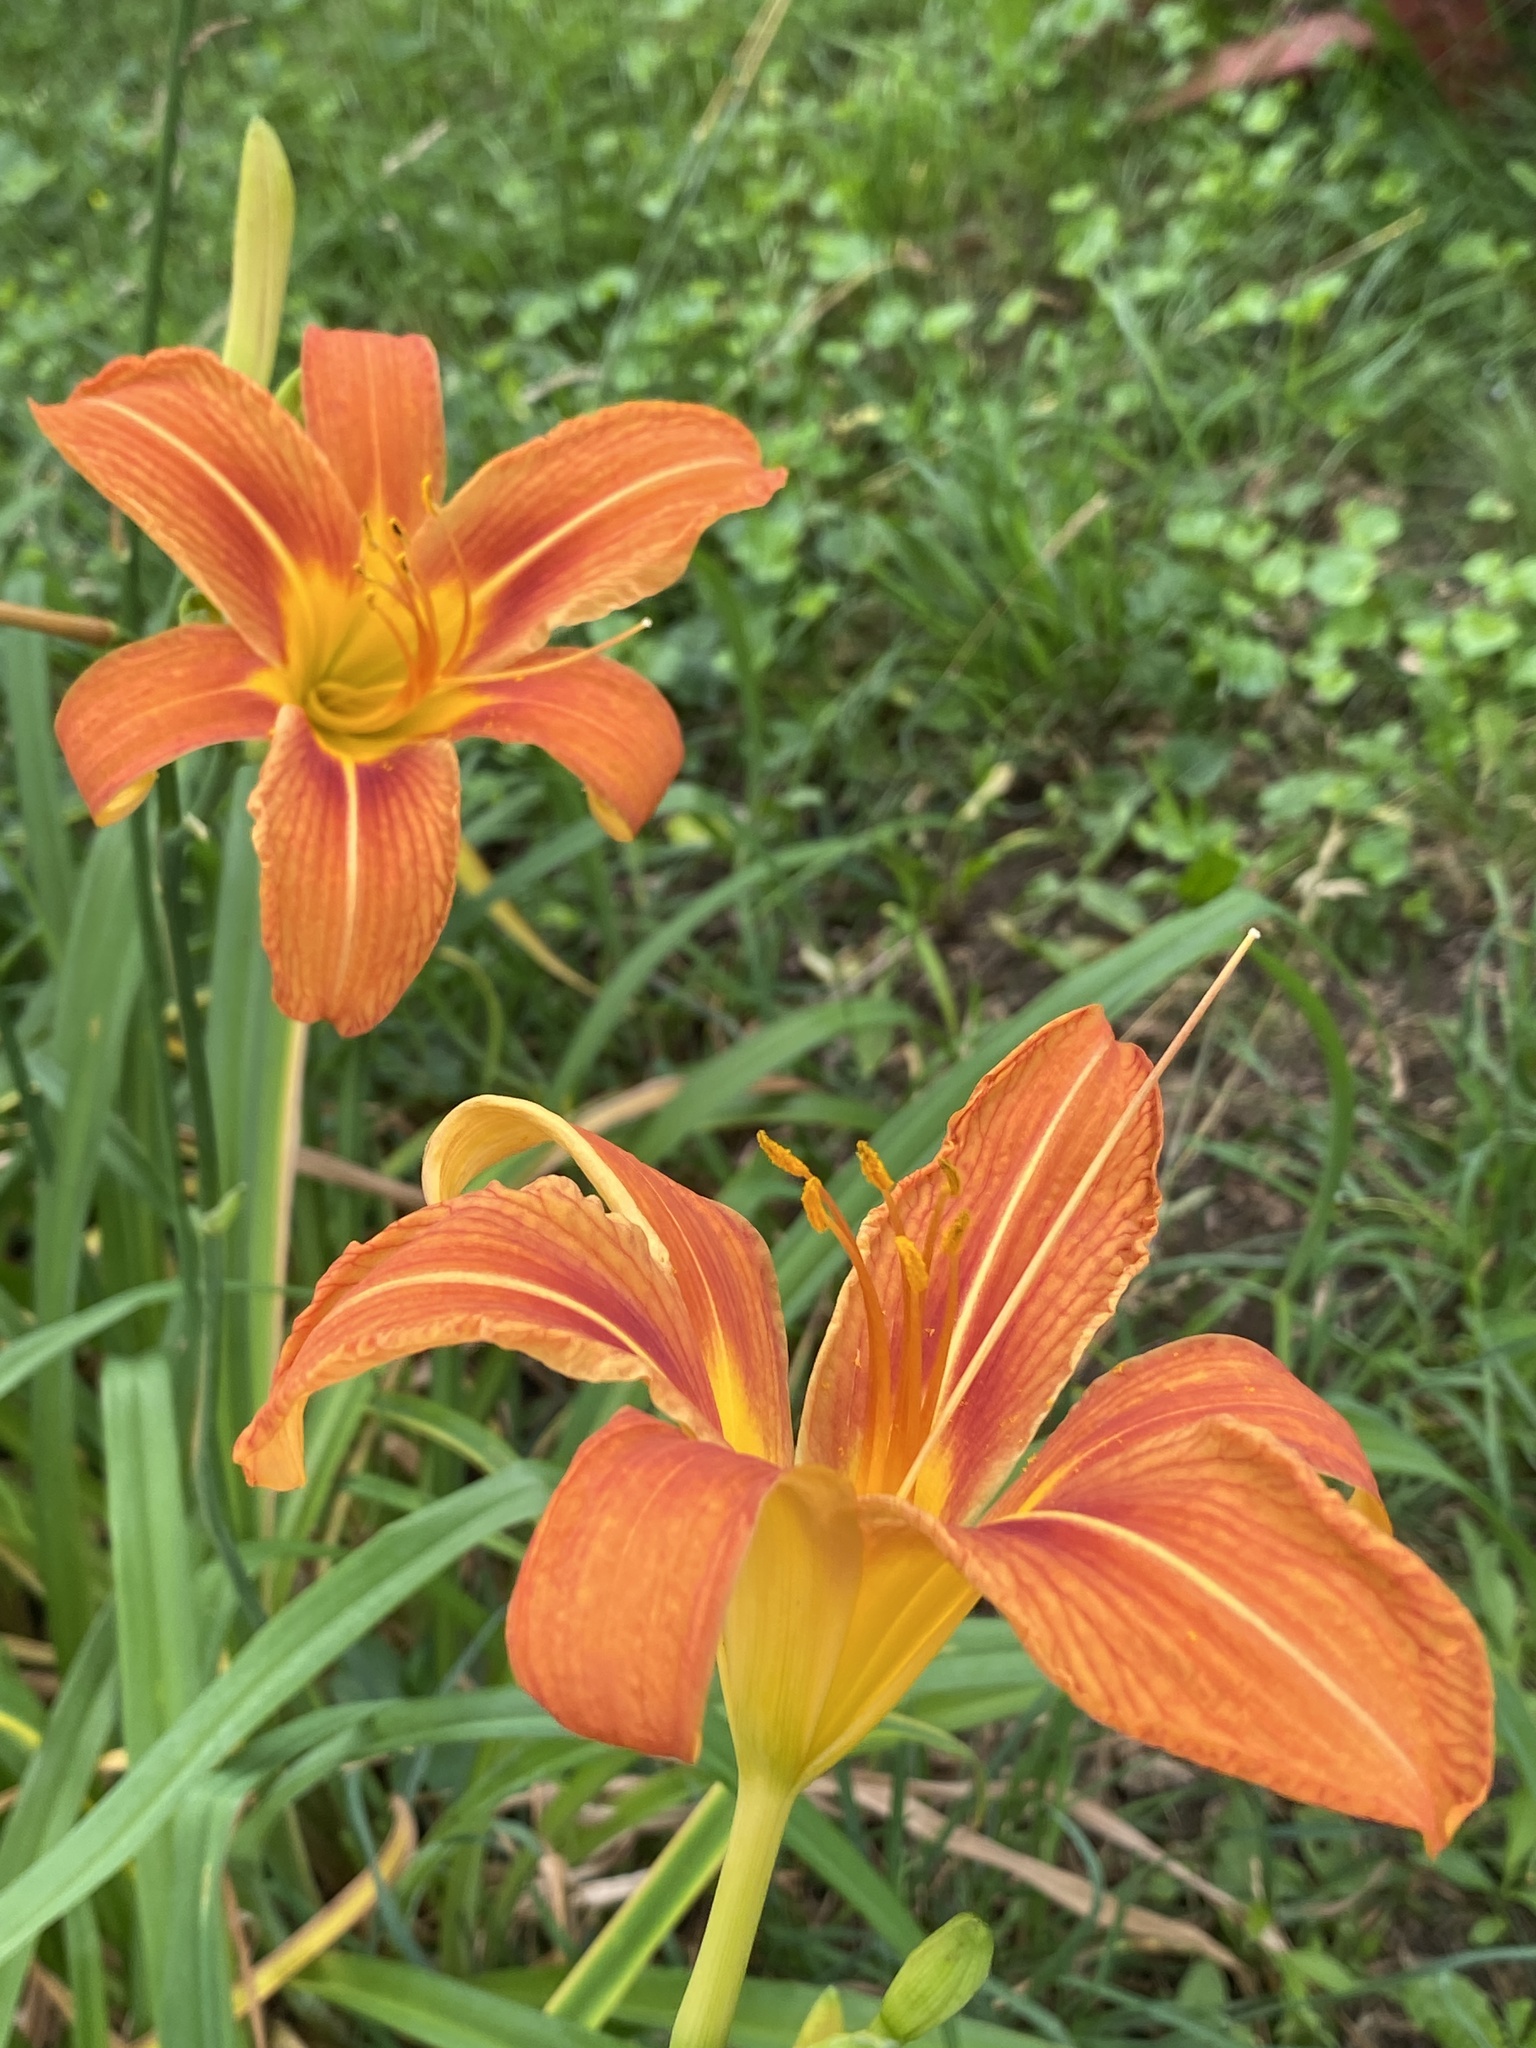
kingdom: Plantae
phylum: Tracheophyta
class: Liliopsida
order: Asparagales
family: Asphodelaceae
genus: Hemerocallis
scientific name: Hemerocallis fulva
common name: Orange day-lily
